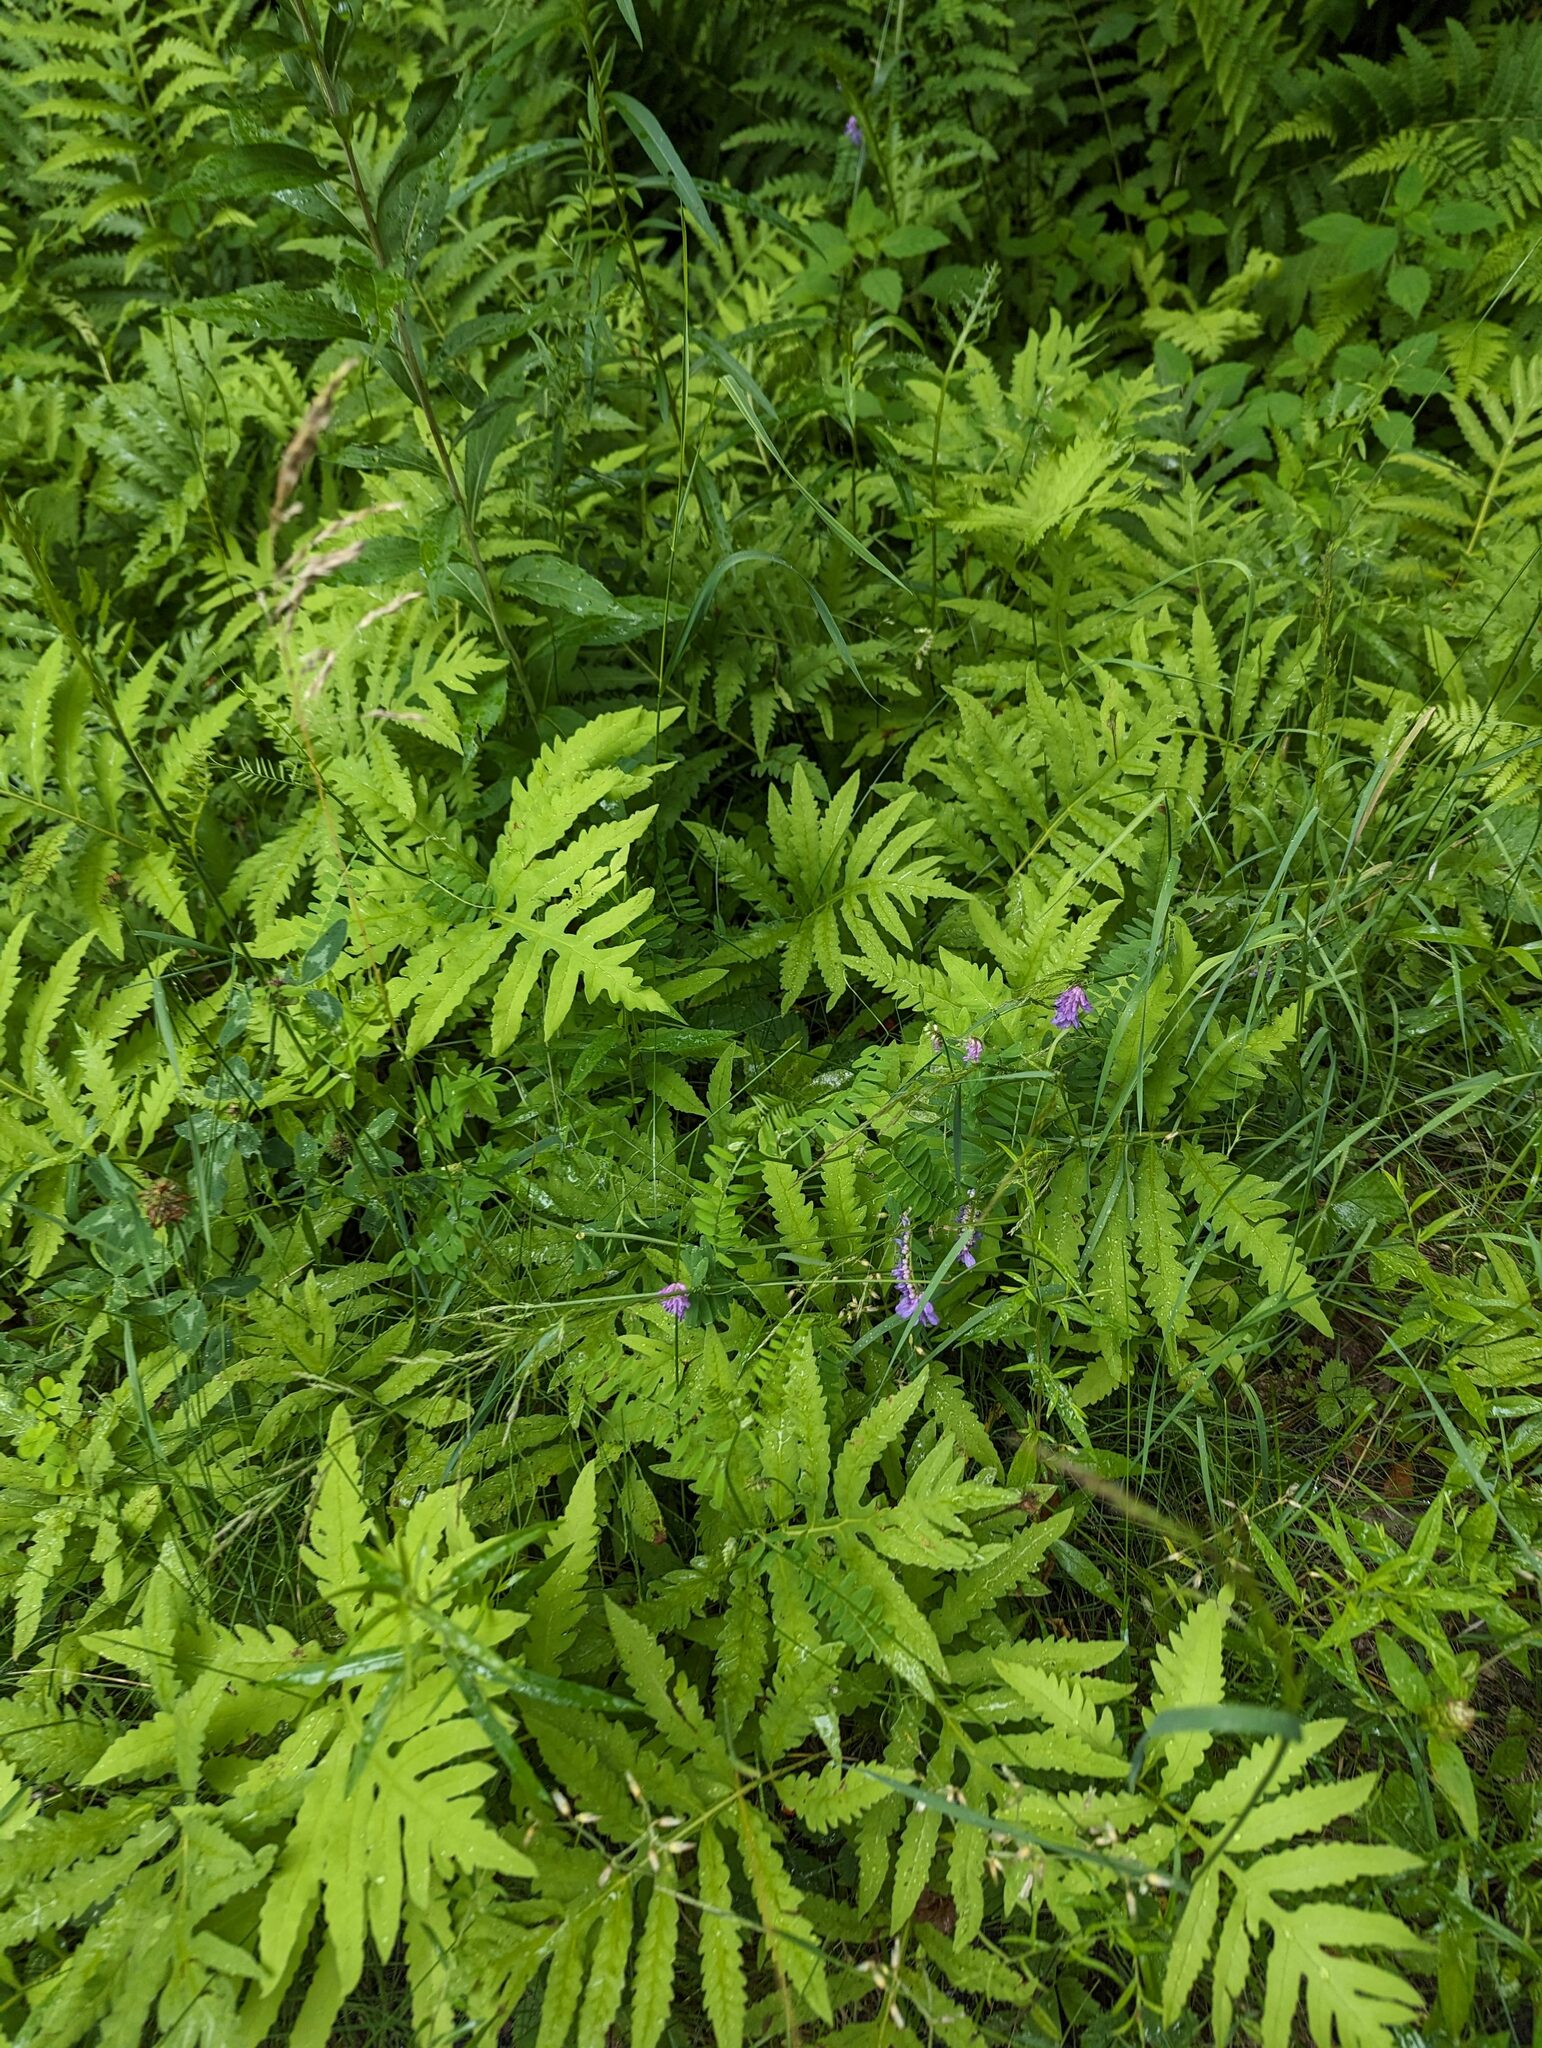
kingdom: Plantae
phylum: Tracheophyta
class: Magnoliopsida
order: Fabales
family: Fabaceae
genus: Vicia
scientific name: Vicia cracca
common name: Bird vetch
